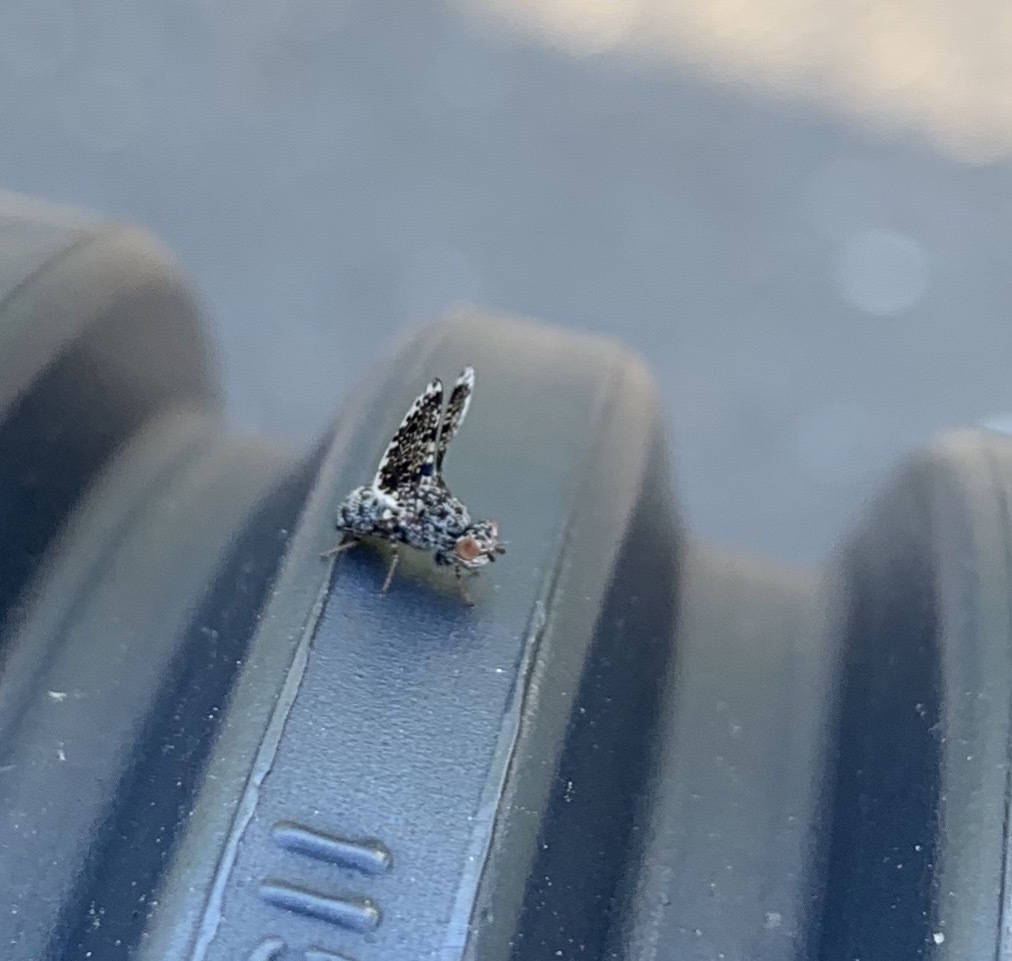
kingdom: Animalia
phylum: Arthropoda
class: Insecta
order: Diptera
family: Ulidiidae
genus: Callopistromyia
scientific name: Callopistromyia annulipes
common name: Peacock fly
